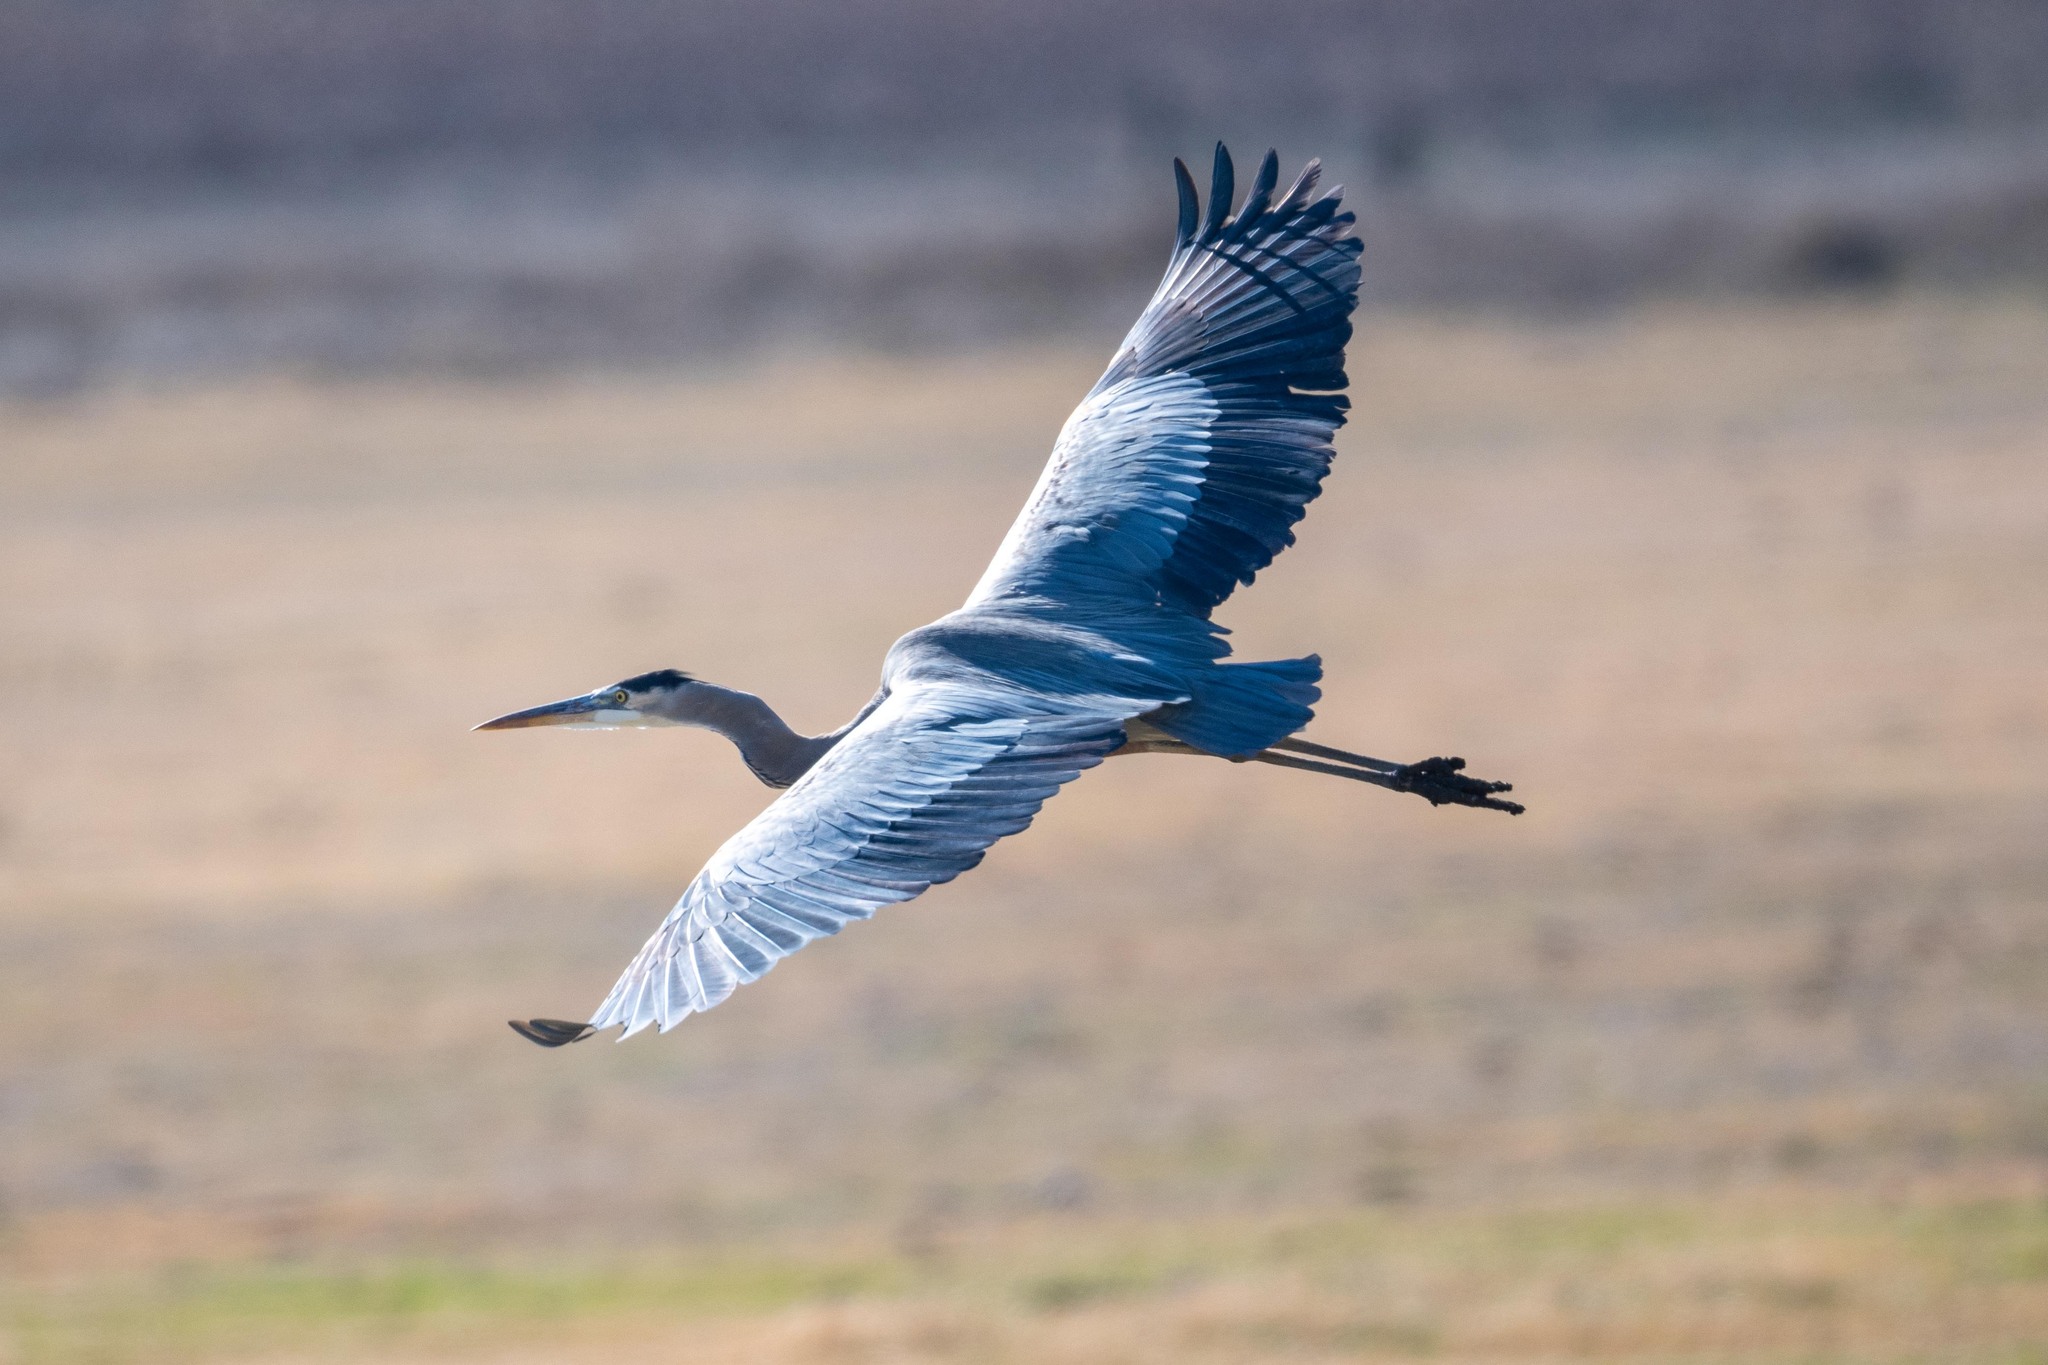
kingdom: Animalia
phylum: Chordata
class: Aves
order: Pelecaniformes
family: Ardeidae
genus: Ardea
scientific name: Ardea herodias
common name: Great blue heron
